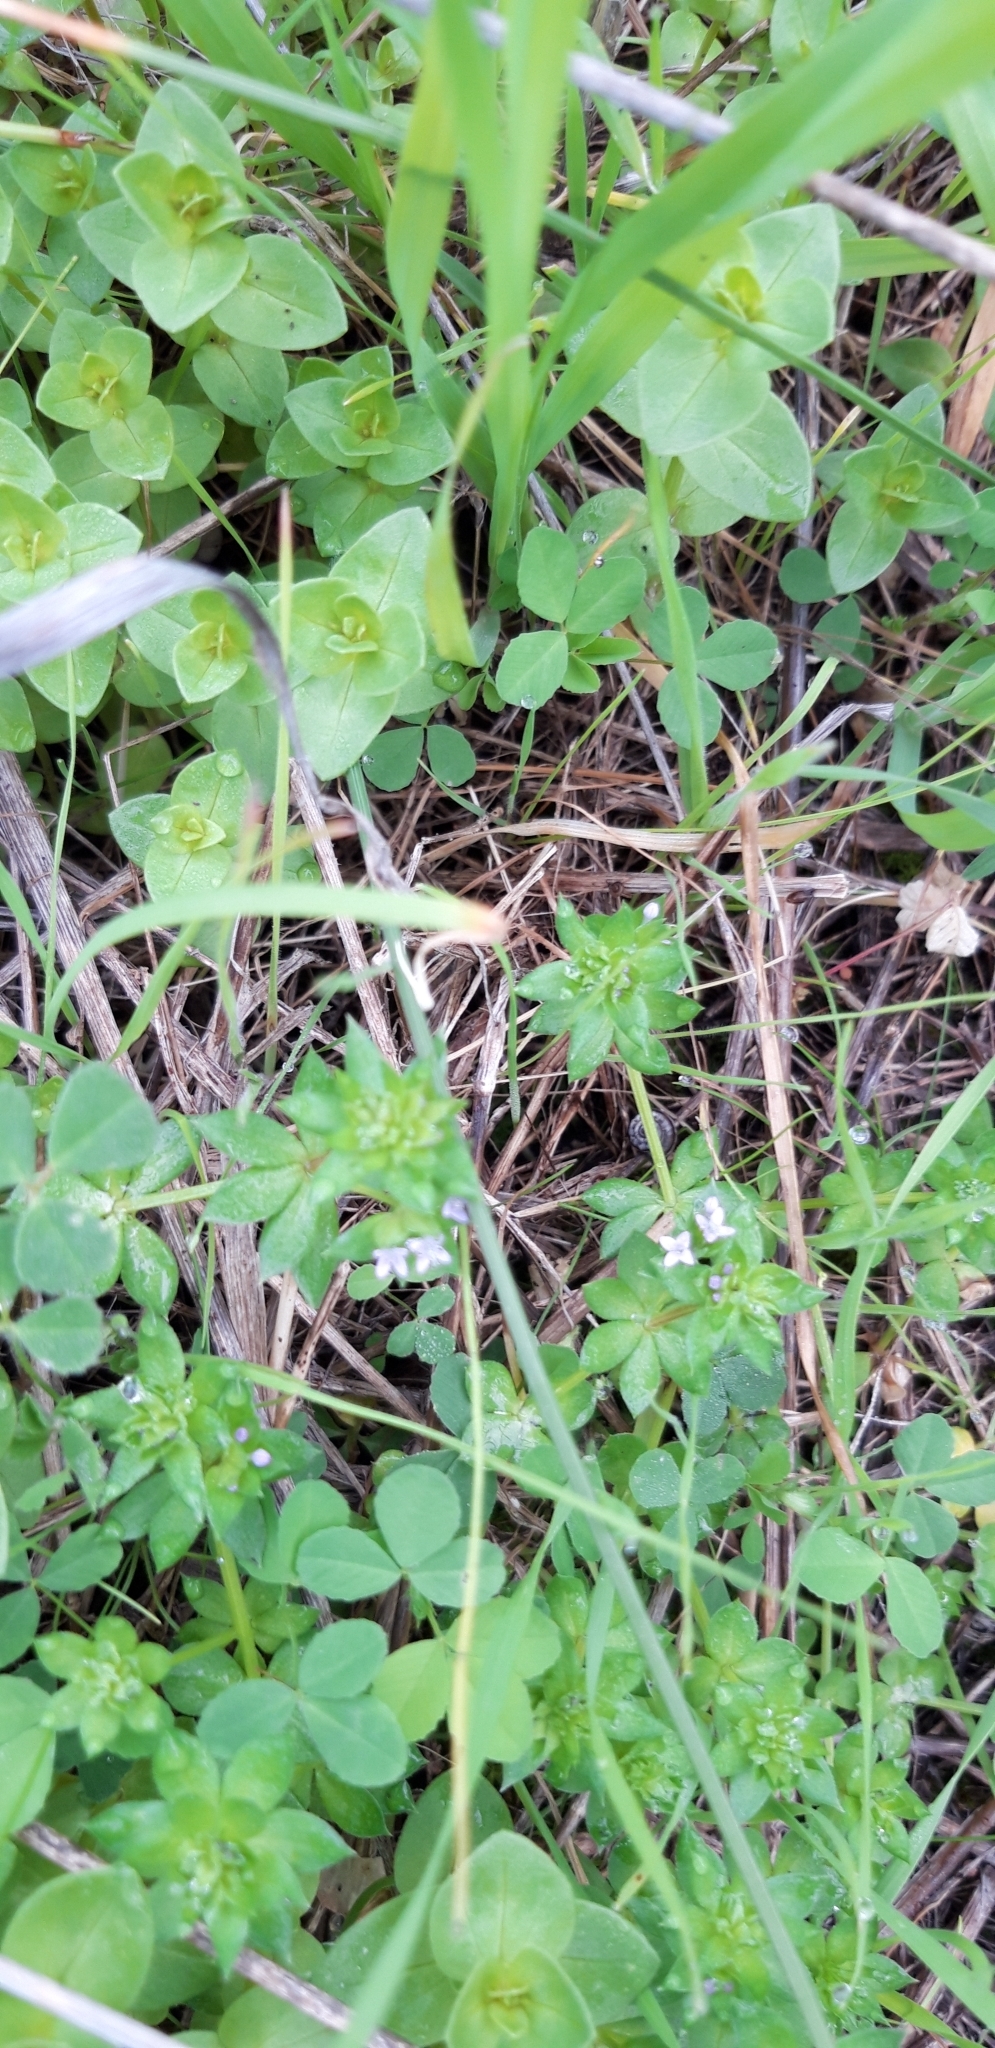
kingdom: Plantae
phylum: Tracheophyta
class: Magnoliopsida
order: Gentianales
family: Rubiaceae
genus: Sherardia
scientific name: Sherardia arvensis
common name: Field madder
